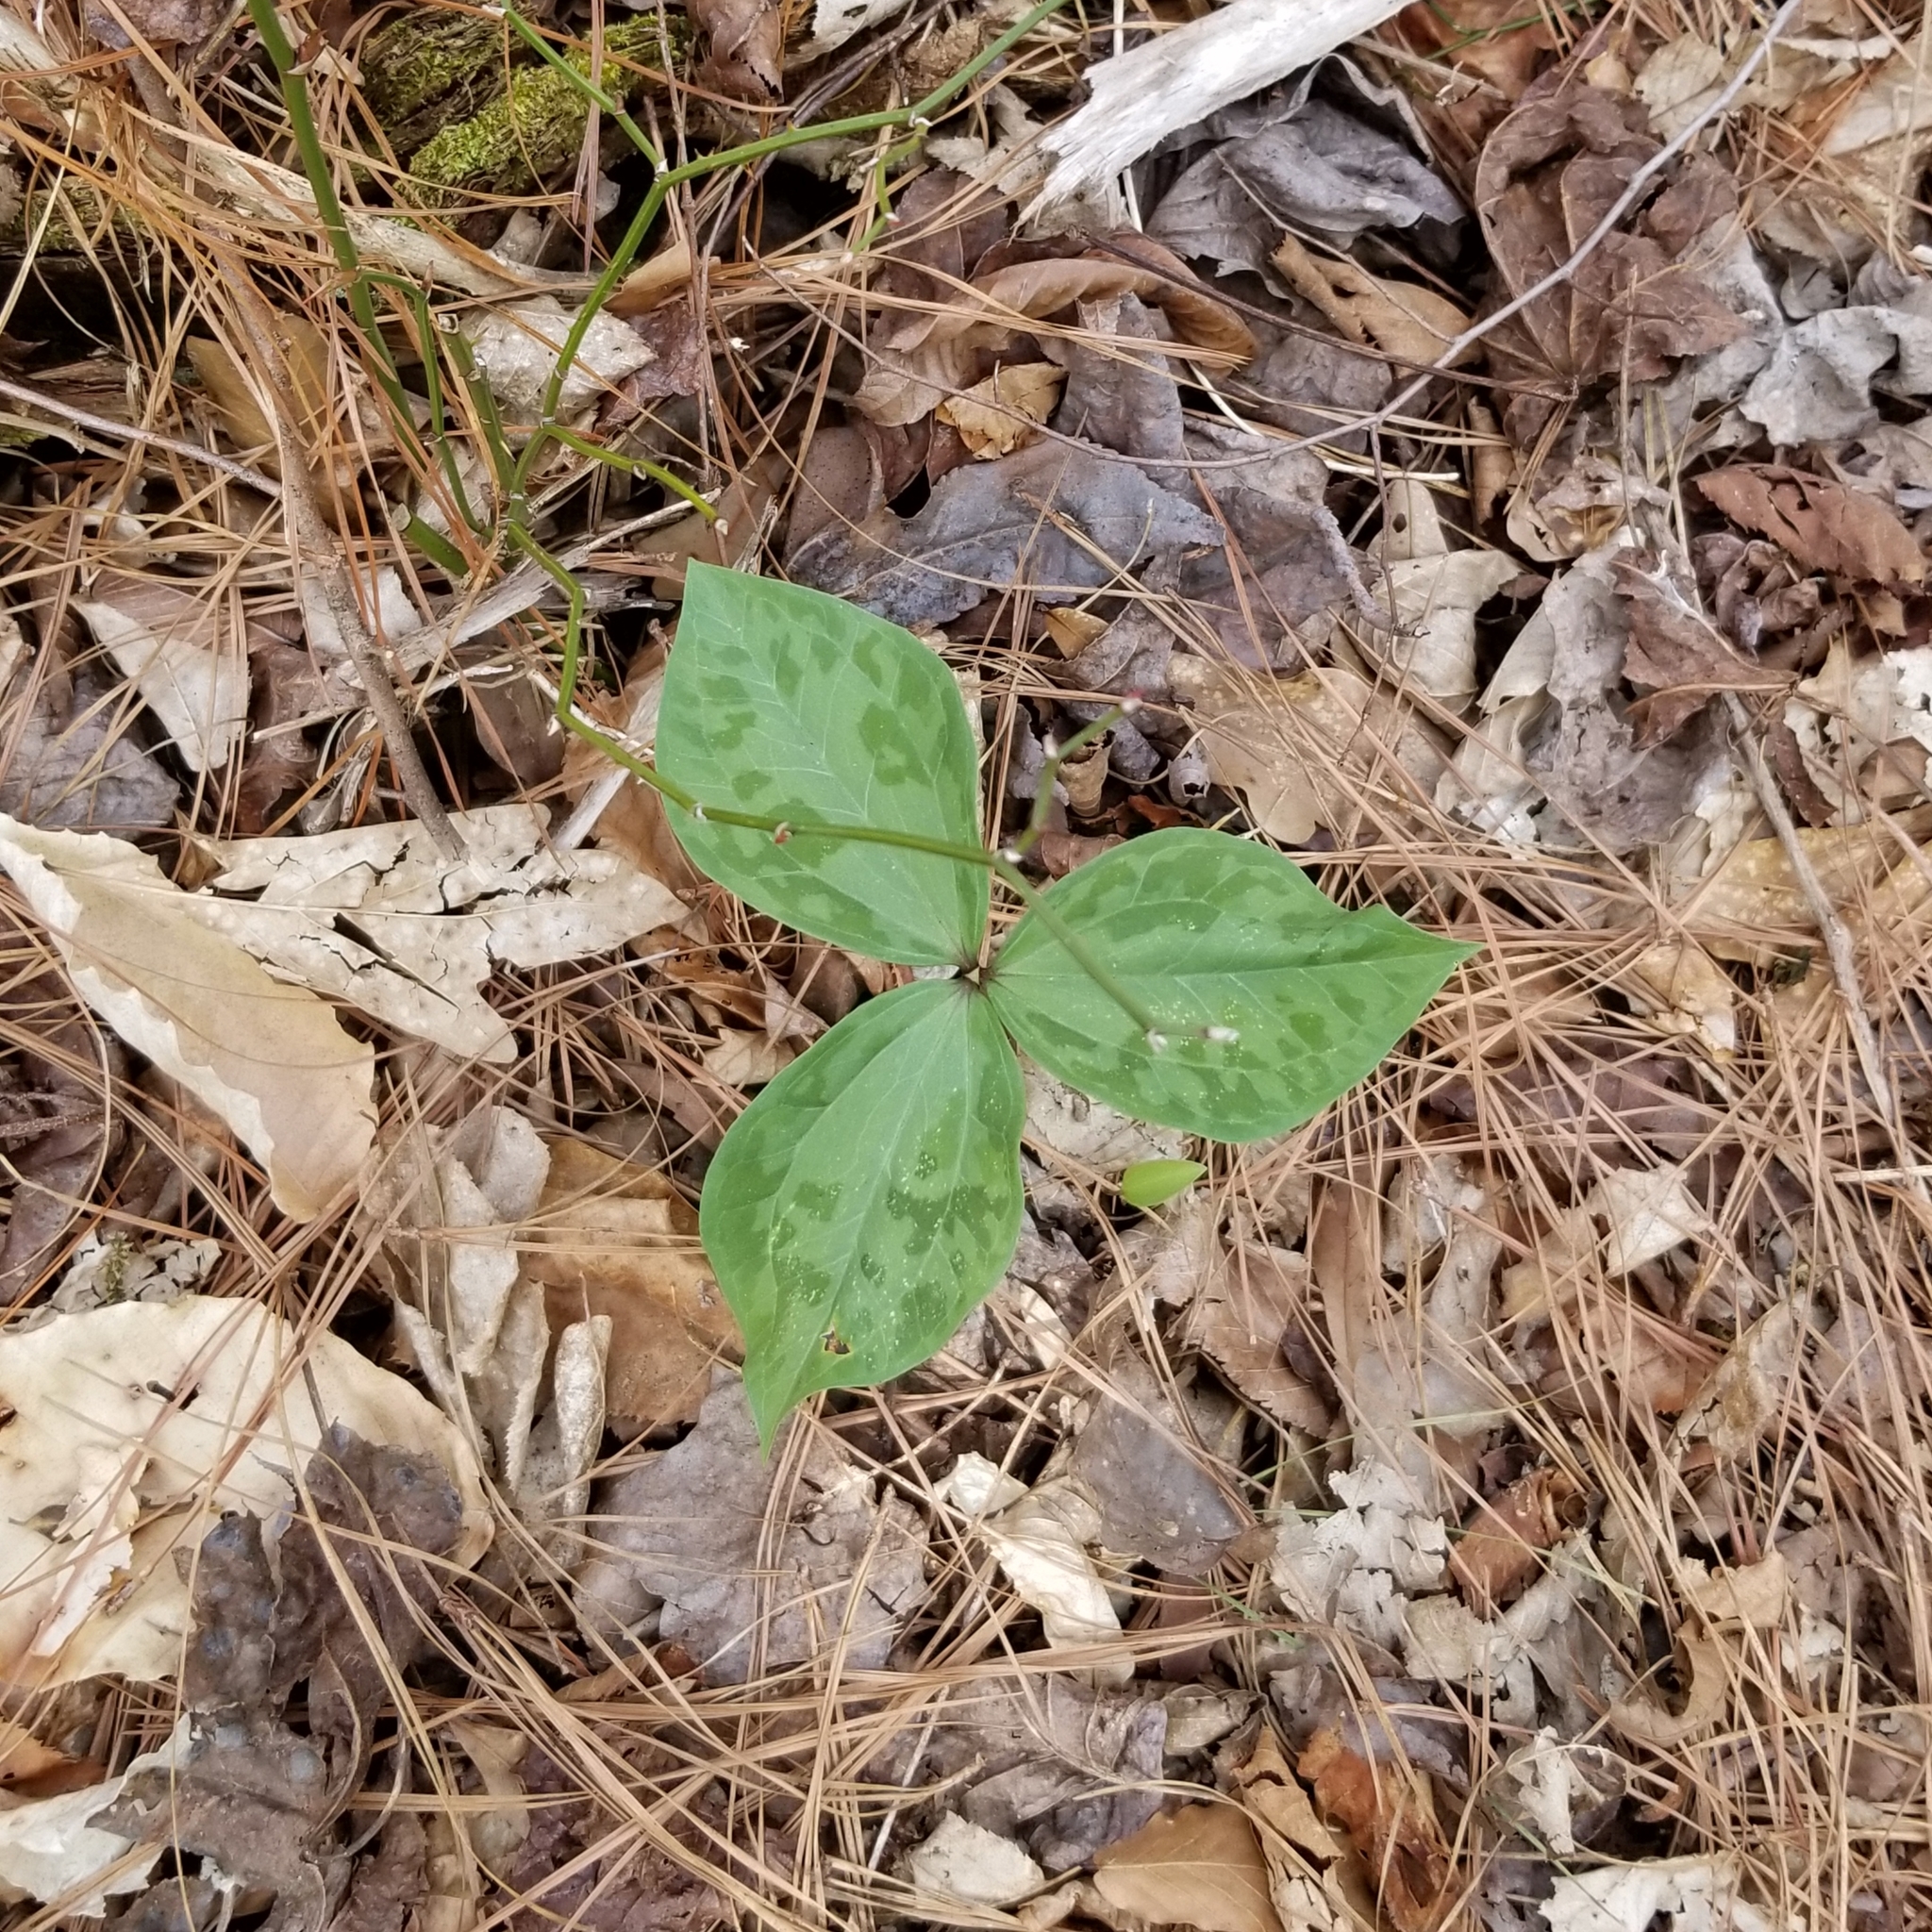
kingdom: Plantae
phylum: Tracheophyta
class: Liliopsida
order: Liliales
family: Melanthiaceae
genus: Trillium
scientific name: Trillium cuneatum
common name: Cuneate trillium
